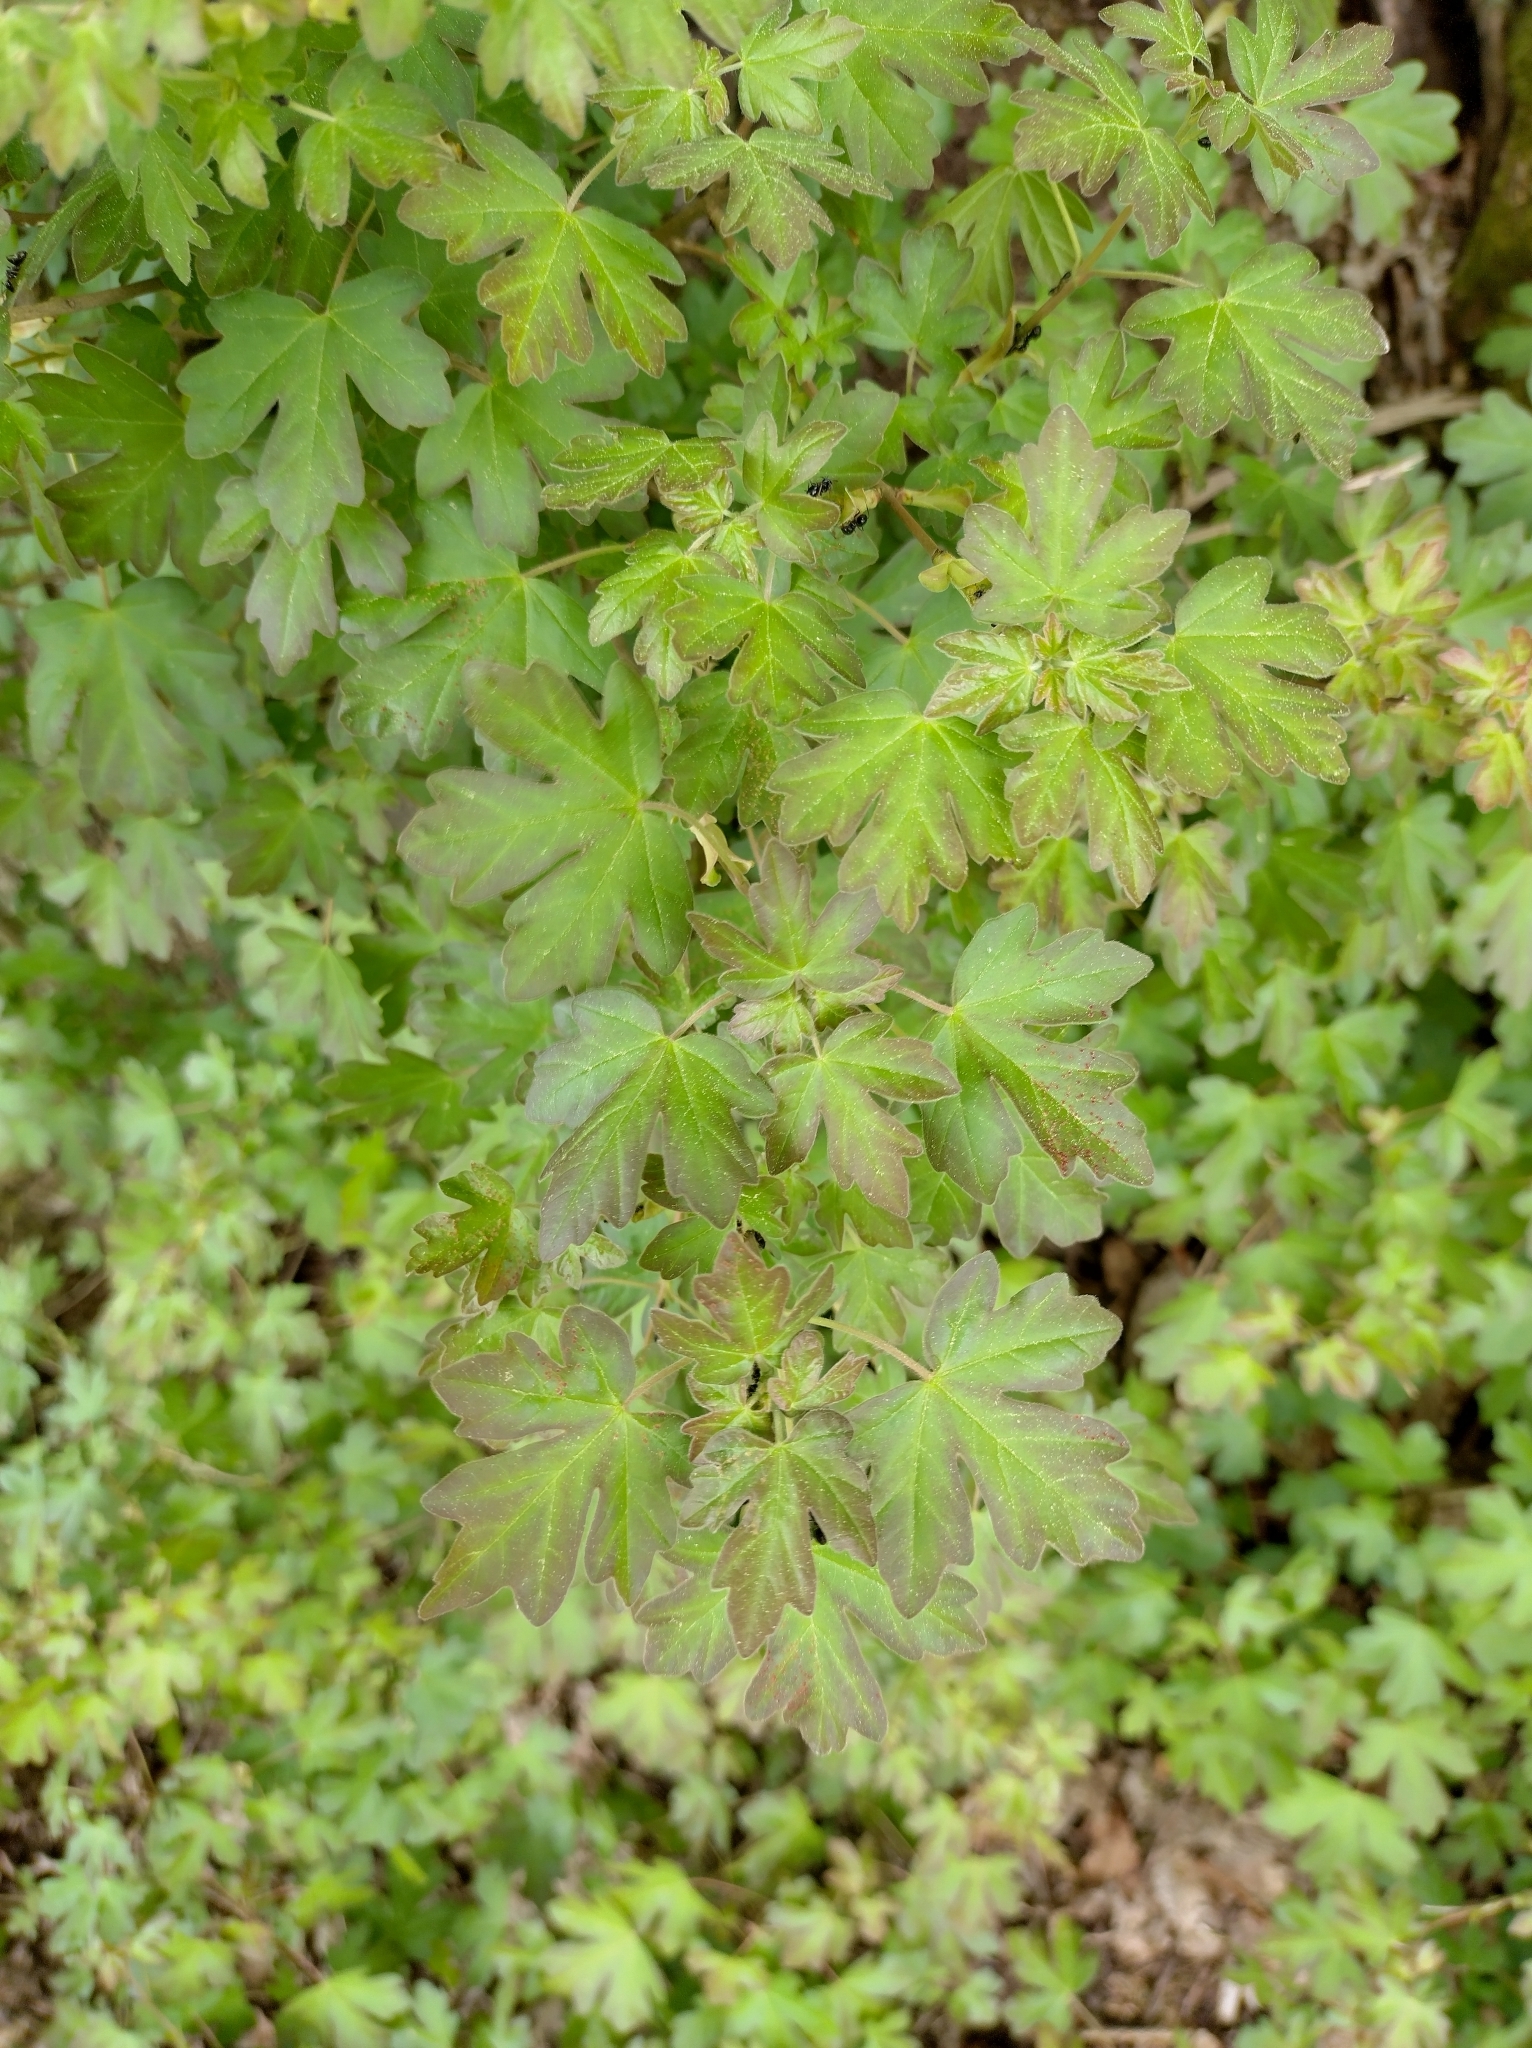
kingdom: Plantae
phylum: Tracheophyta
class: Magnoliopsida
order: Sapindales
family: Sapindaceae
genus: Acer
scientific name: Acer campestre
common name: Field maple
